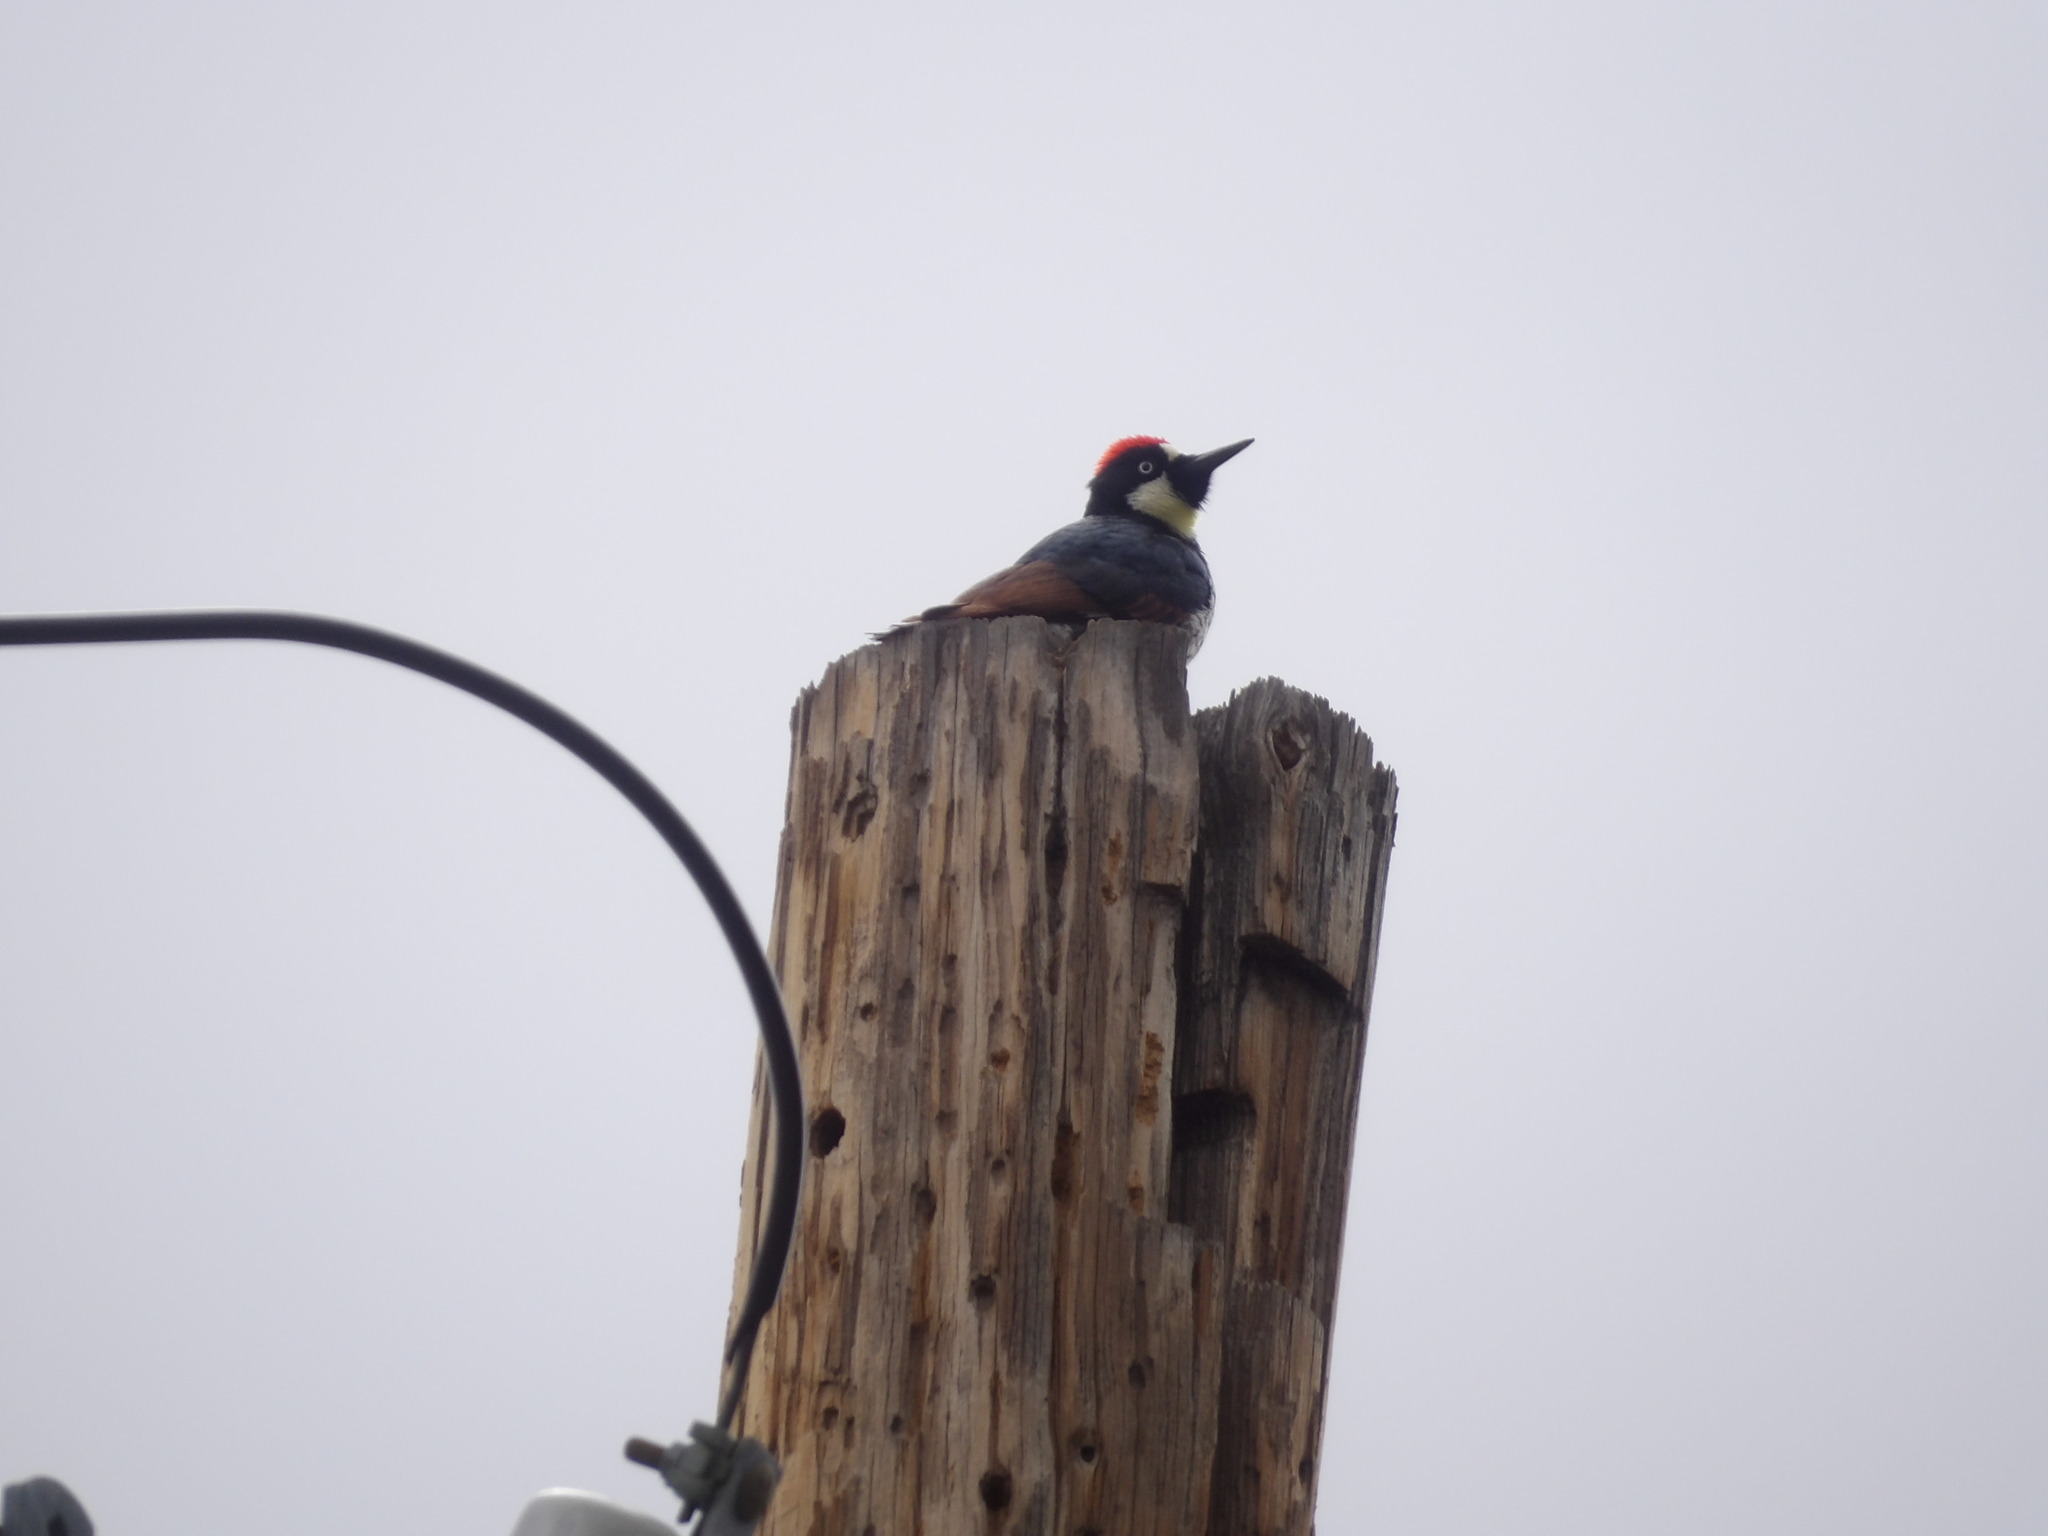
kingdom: Animalia
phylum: Chordata
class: Aves
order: Piciformes
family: Picidae
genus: Melanerpes
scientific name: Melanerpes formicivorus
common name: Acorn woodpecker
